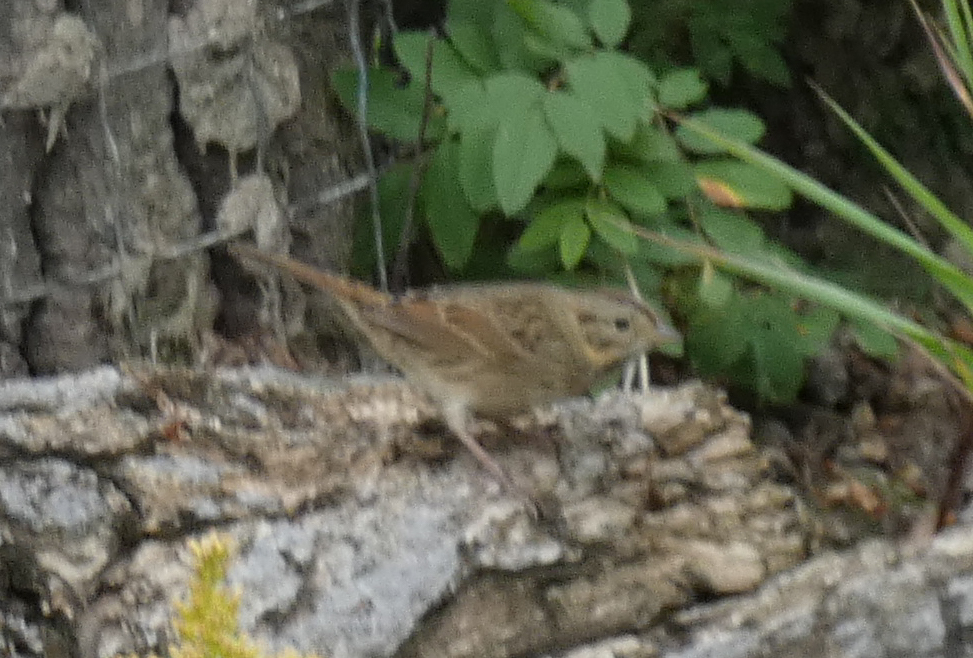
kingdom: Animalia
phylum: Chordata
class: Aves
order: Passeriformes
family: Passerellidae
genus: Melospiza
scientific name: Melospiza lincolnii
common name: Lincoln's sparrow
